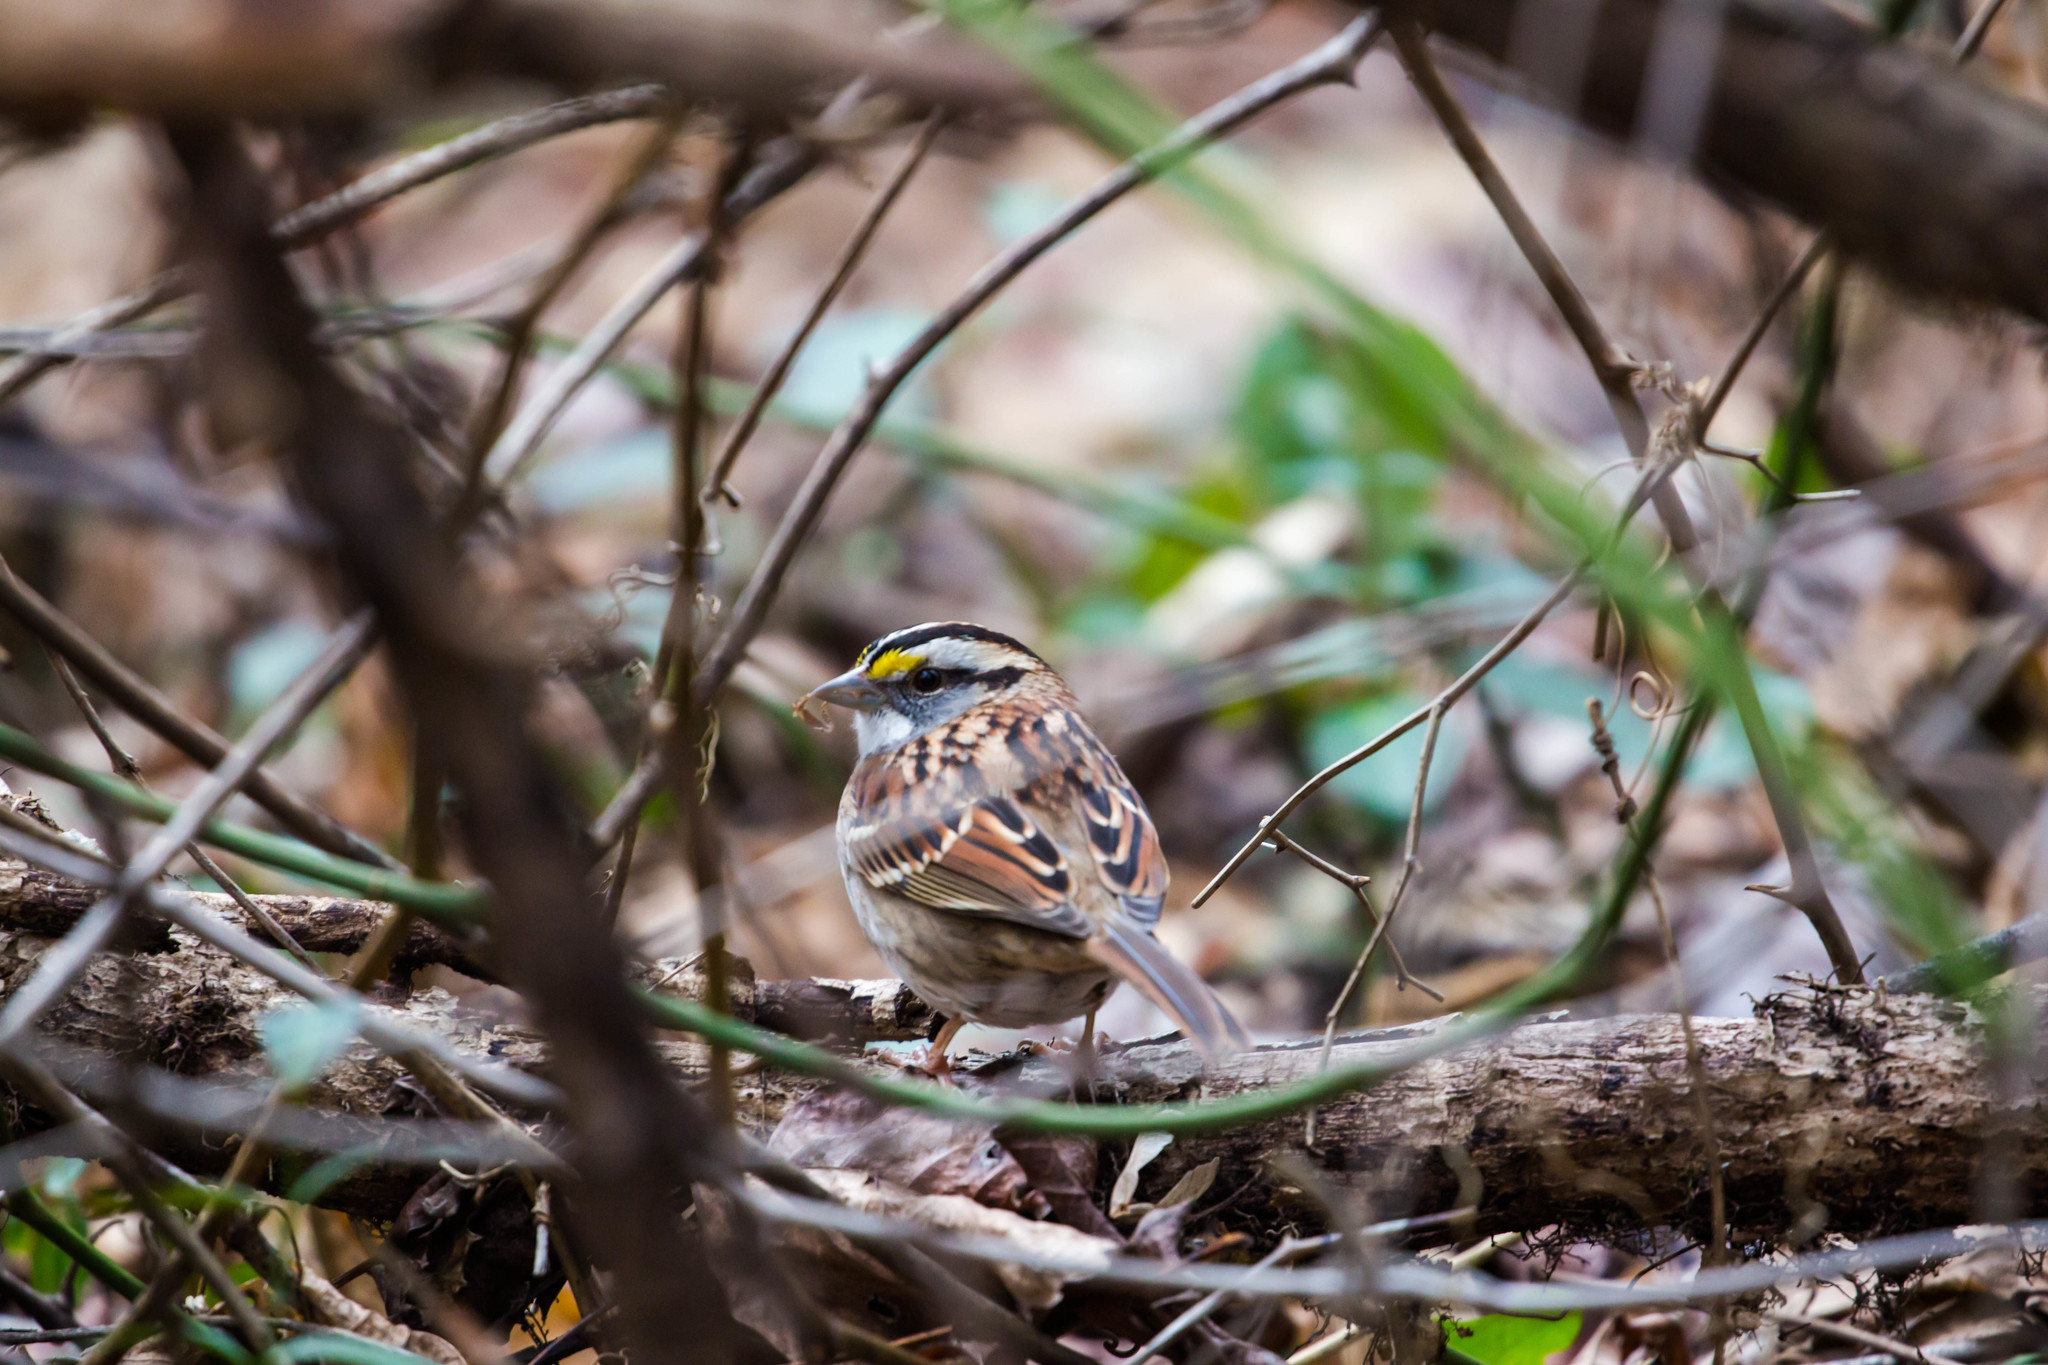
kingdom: Animalia
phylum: Chordata
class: Aves
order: Passeriformes
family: Passerellidae
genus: Zonotrichia
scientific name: Zonotrichia albicollis
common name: White-throated sparrow
